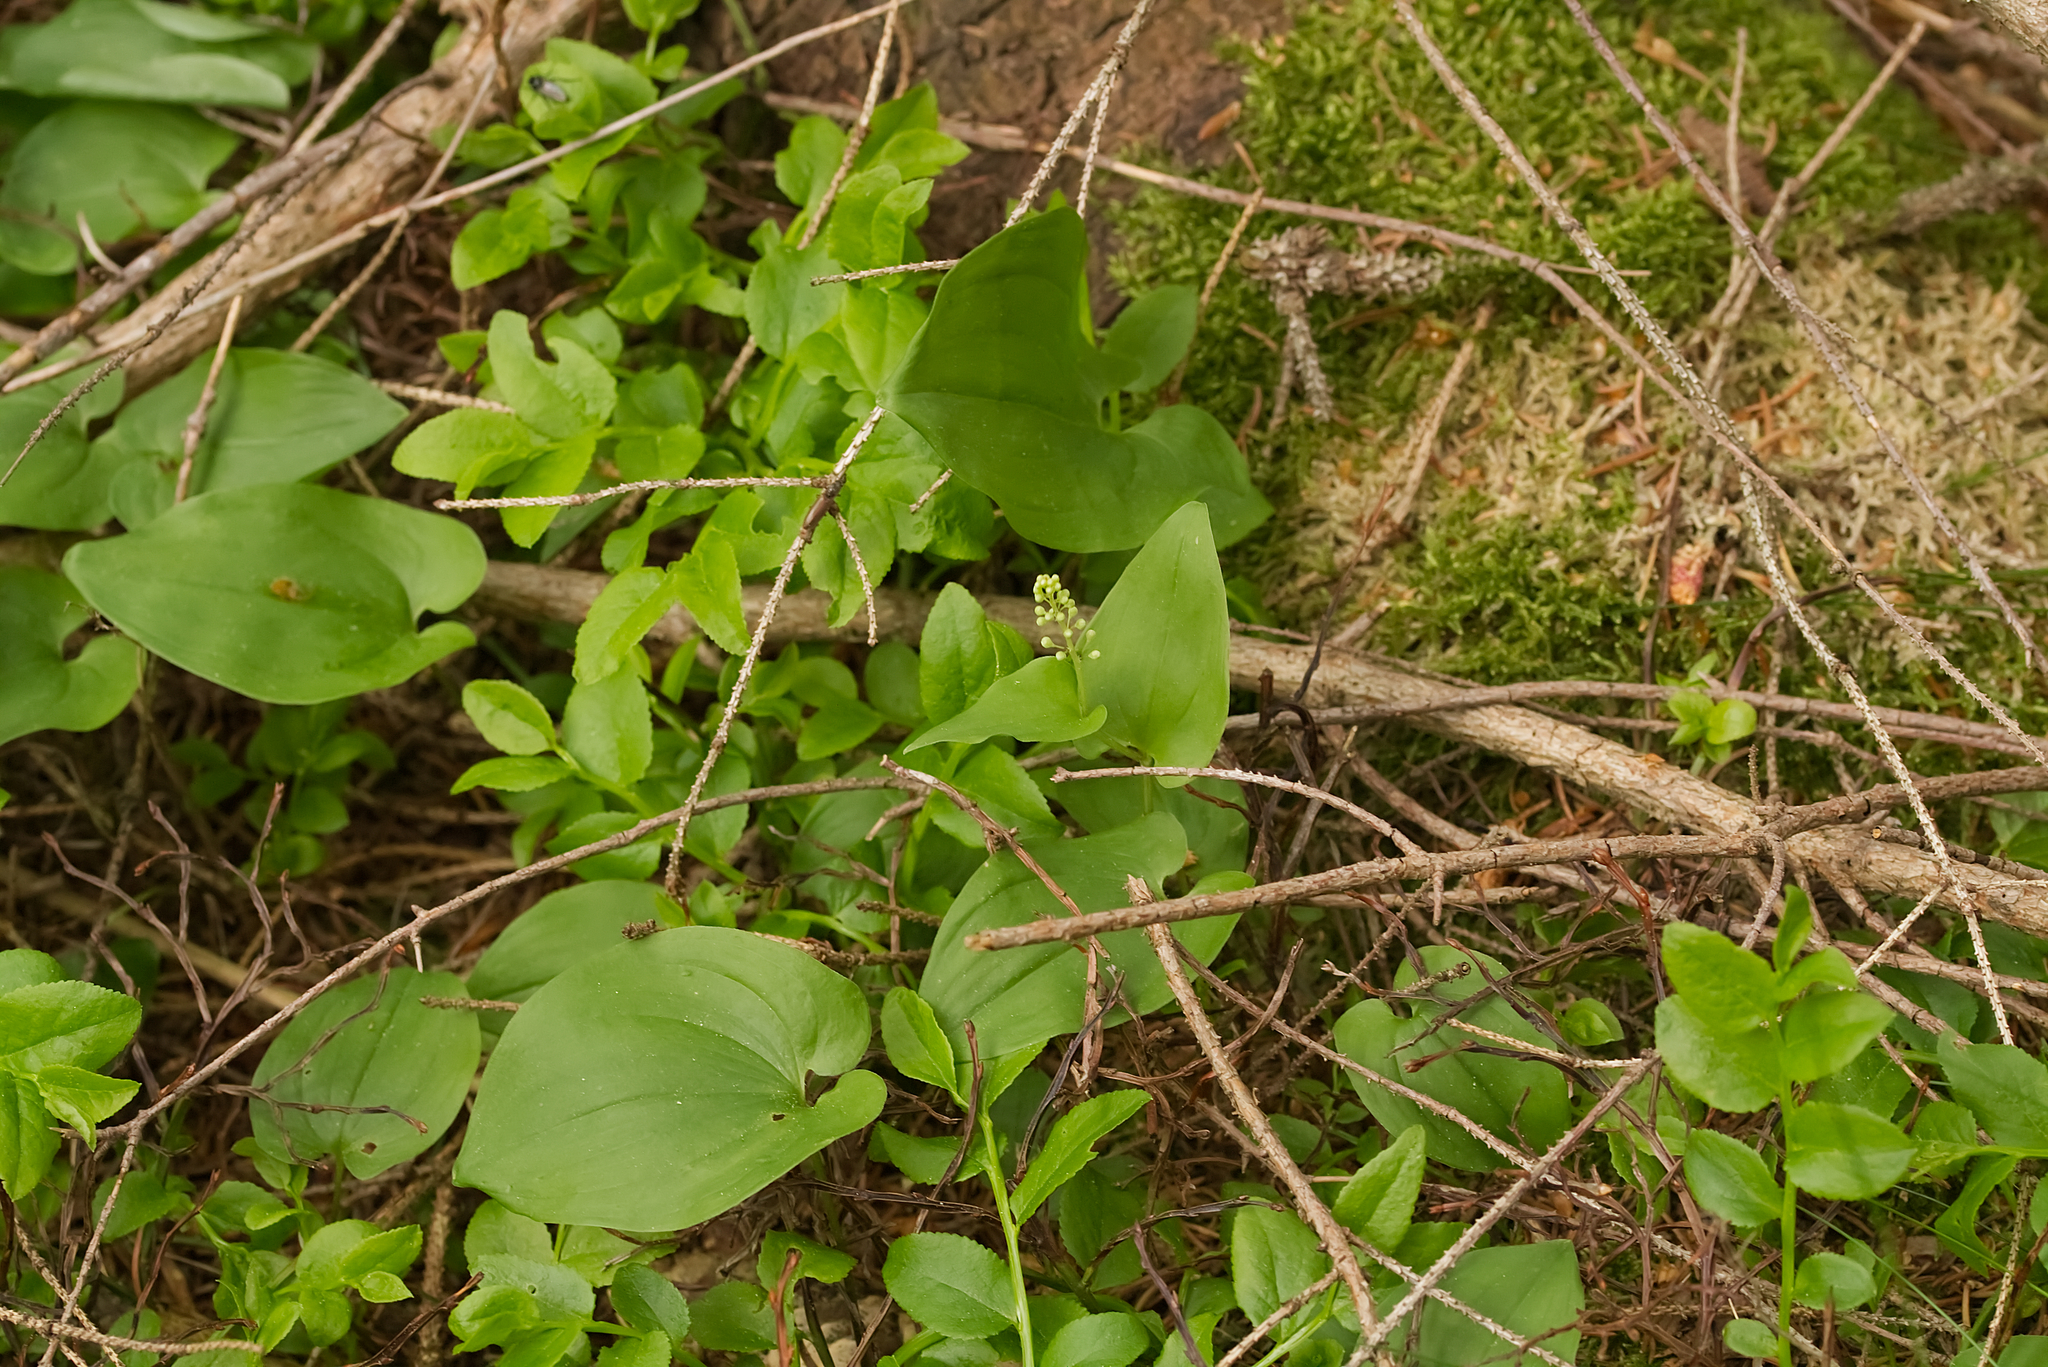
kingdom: Plantae
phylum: Tracheophyta
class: Liliopsida
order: Asparagales
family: Asparagaceae
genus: Maianthemum
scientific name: Maianthemum bifolium
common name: May lily
